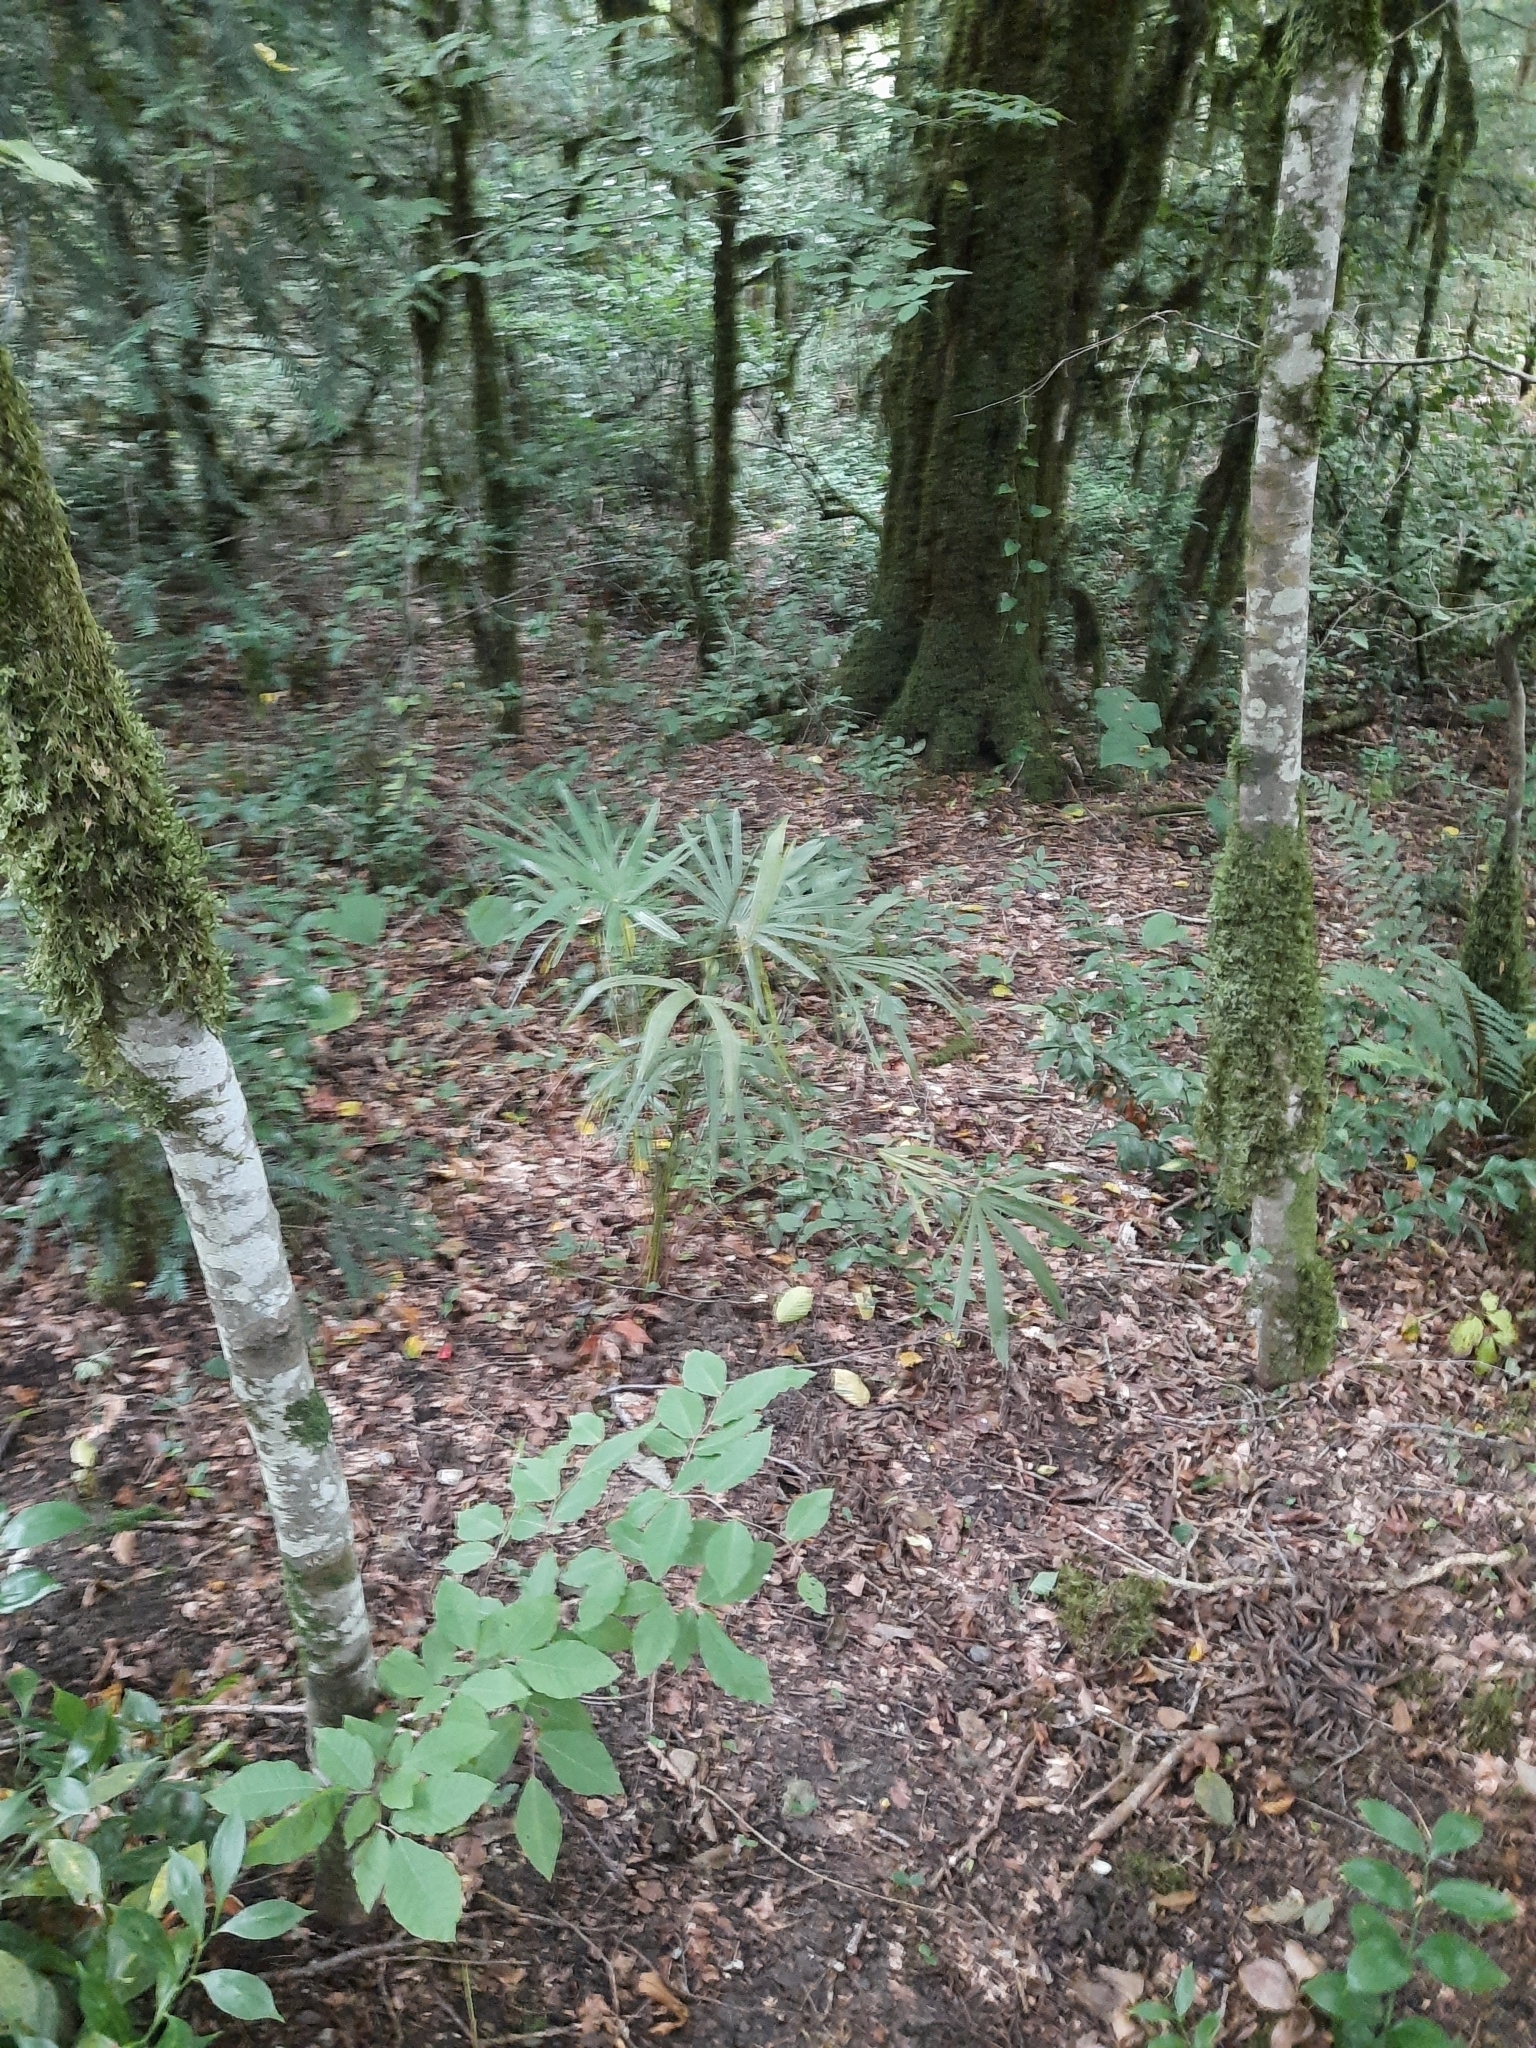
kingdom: Plantae
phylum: Tracheophyta
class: Liliopsida
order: Arecales
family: Arecaceae
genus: Trachycarpus
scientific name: Trachycarpus fortunei
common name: Chusan palm
